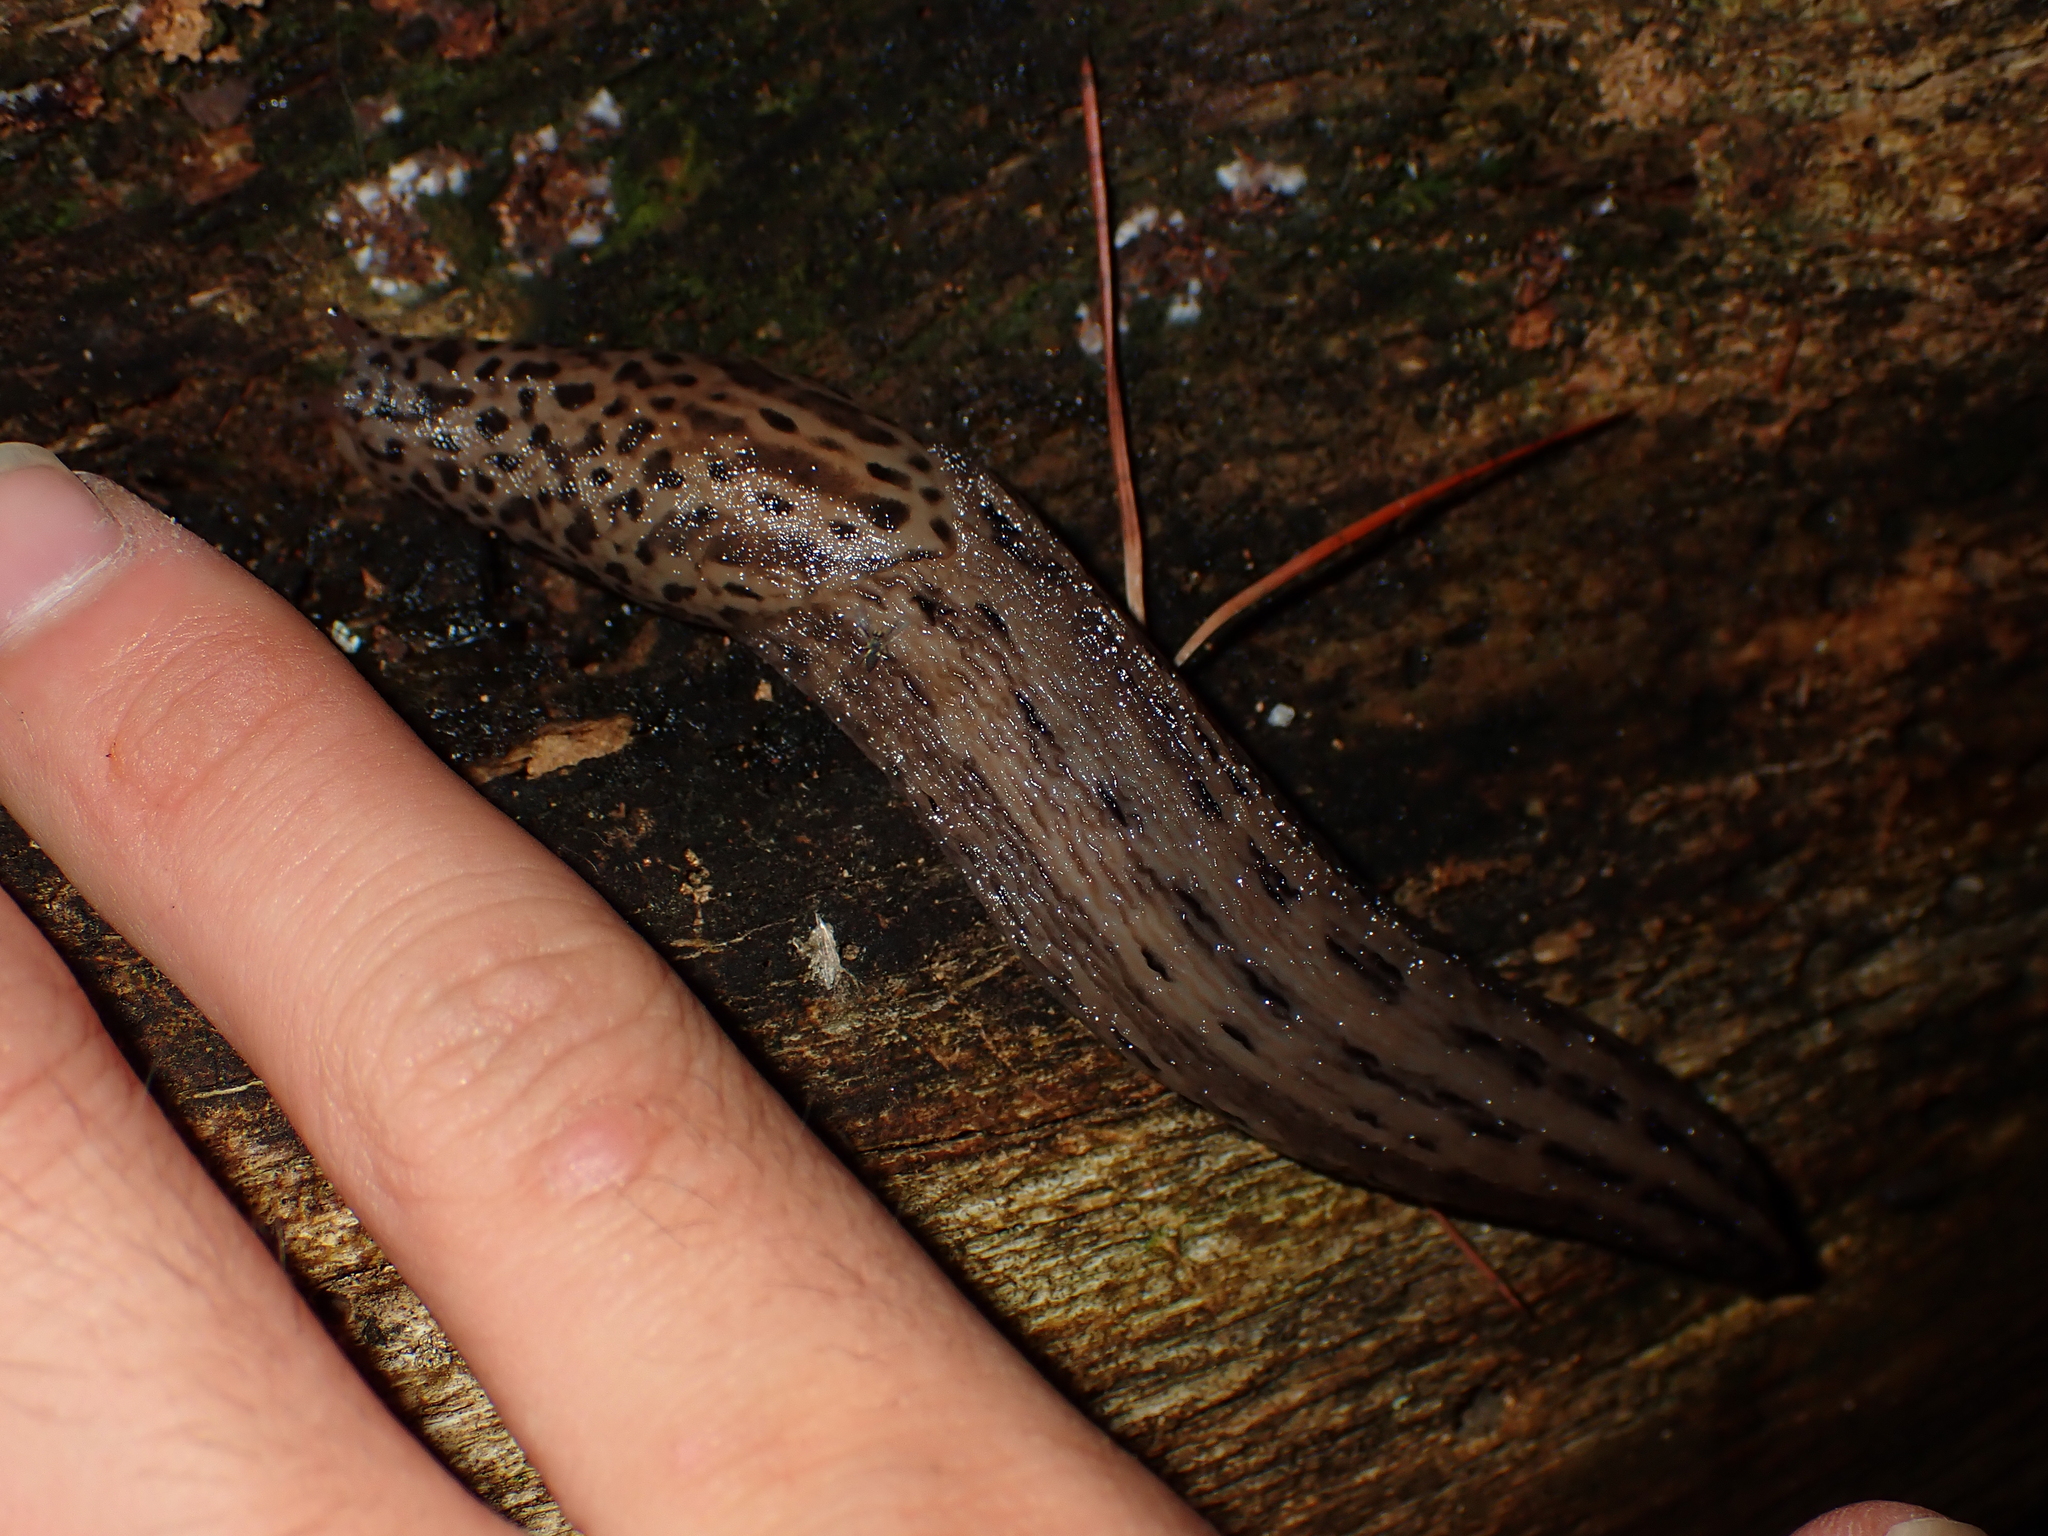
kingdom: Animalia
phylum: Mollusca
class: Gastropoda
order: Stylommatophora
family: Limacidae
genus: Limax
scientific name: Limax maximus
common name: Great grey slug
